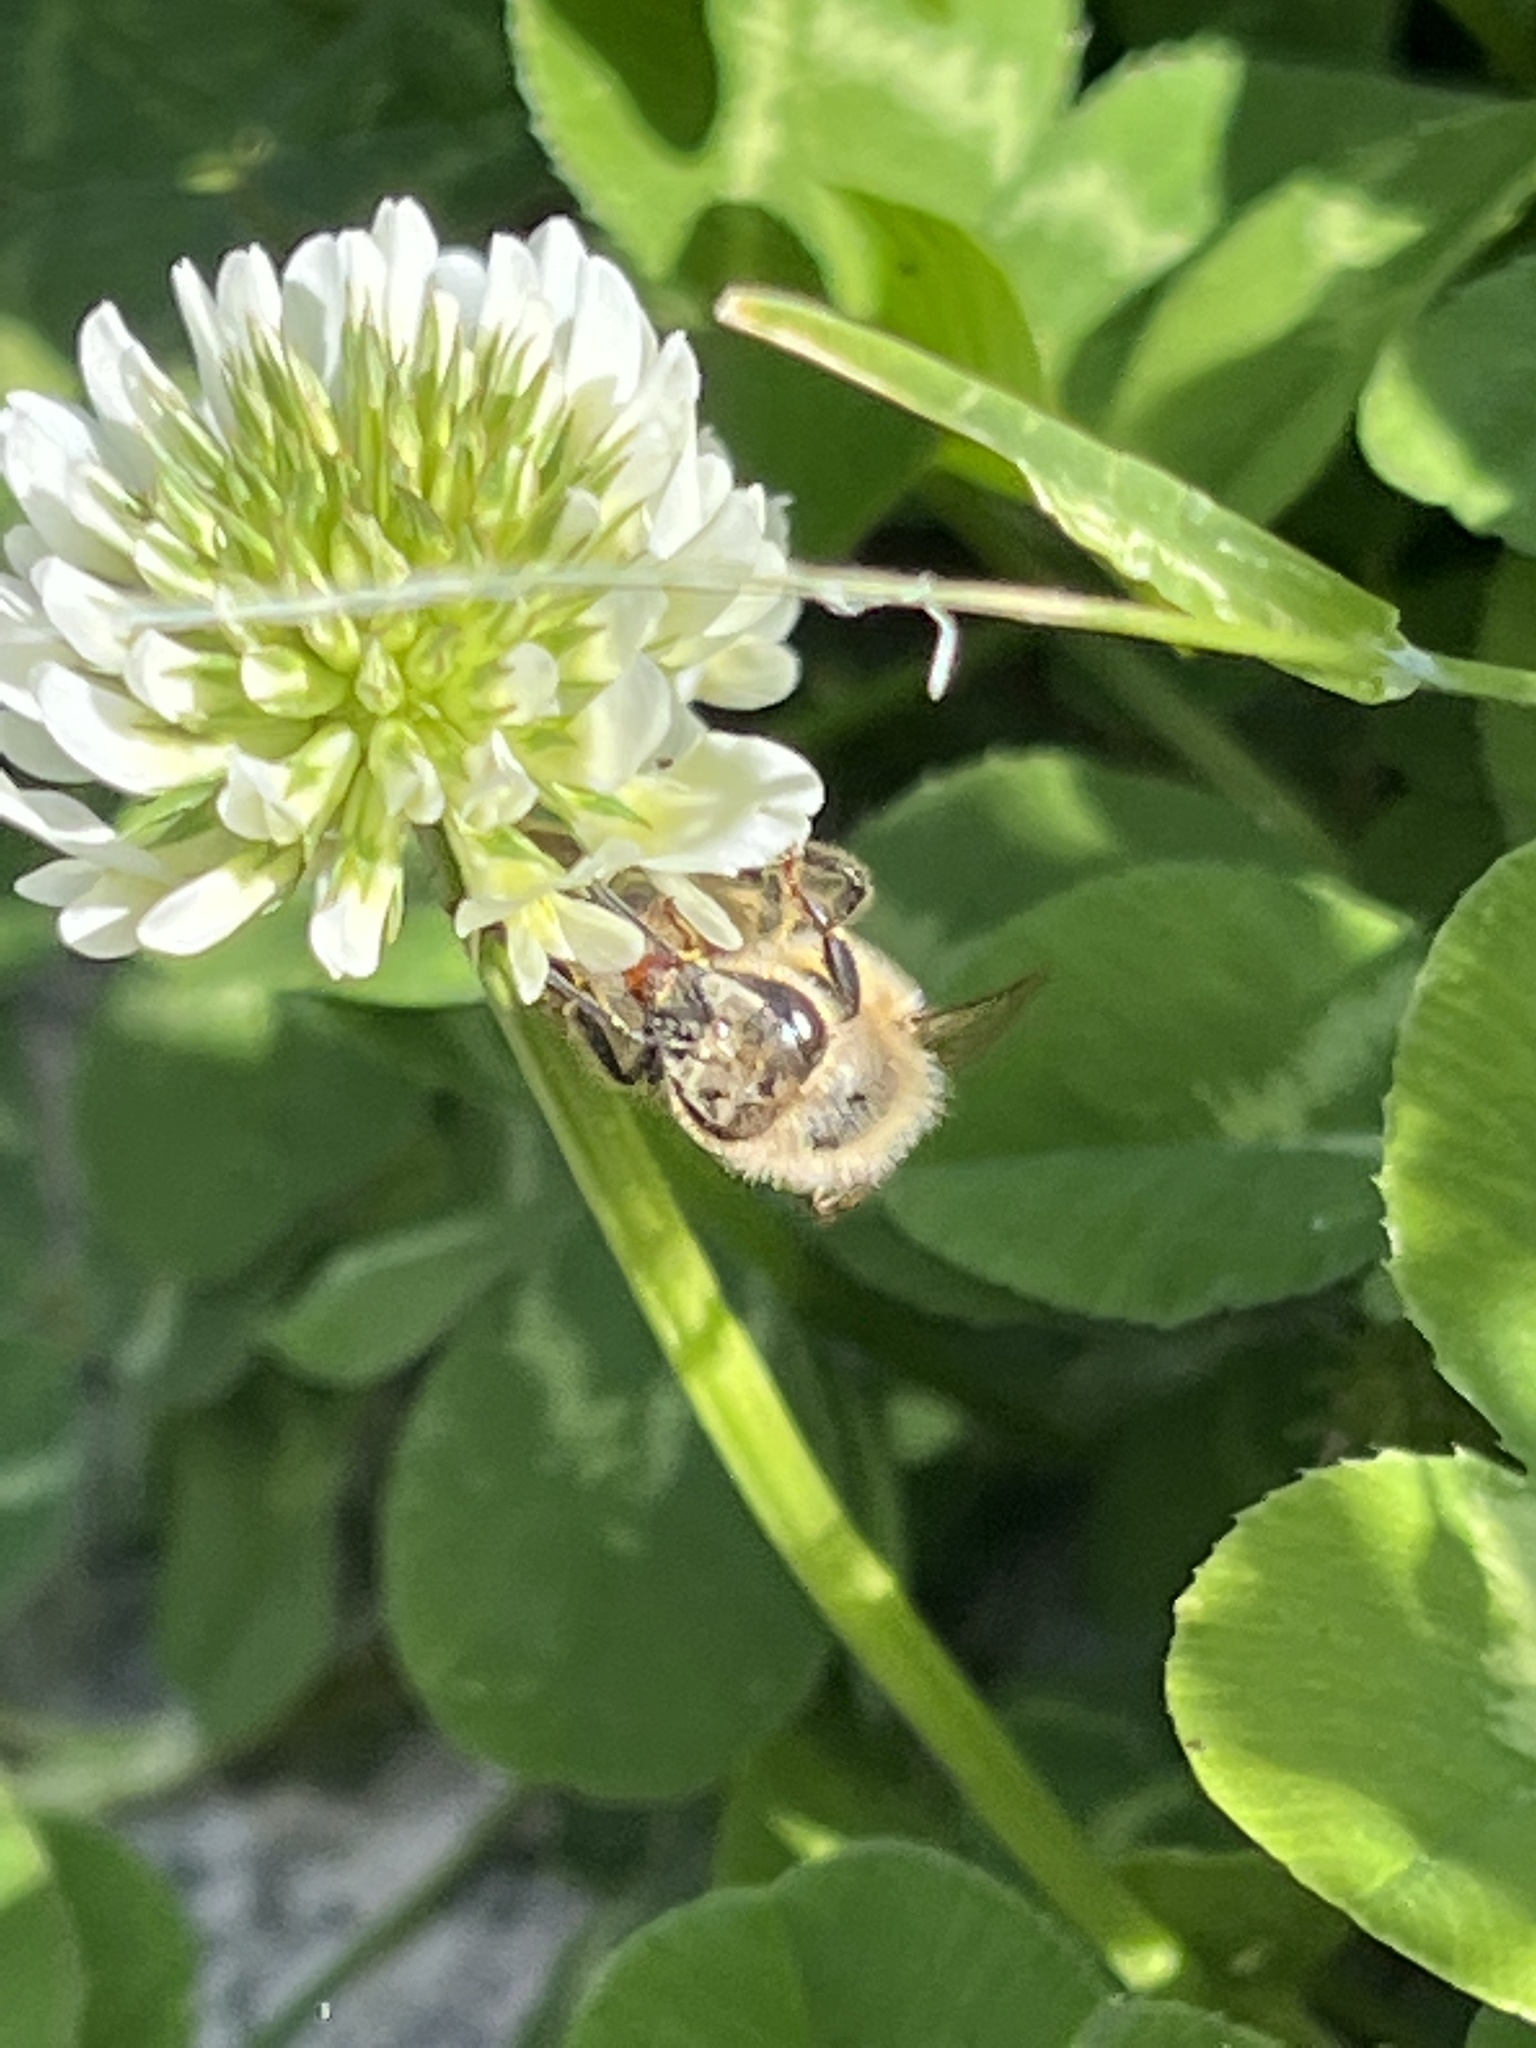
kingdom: Animalia
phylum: Arthropoda
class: Insecta
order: Hymenoptera
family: Apidae
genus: Apis
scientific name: Apis mellifera
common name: Honey bee
